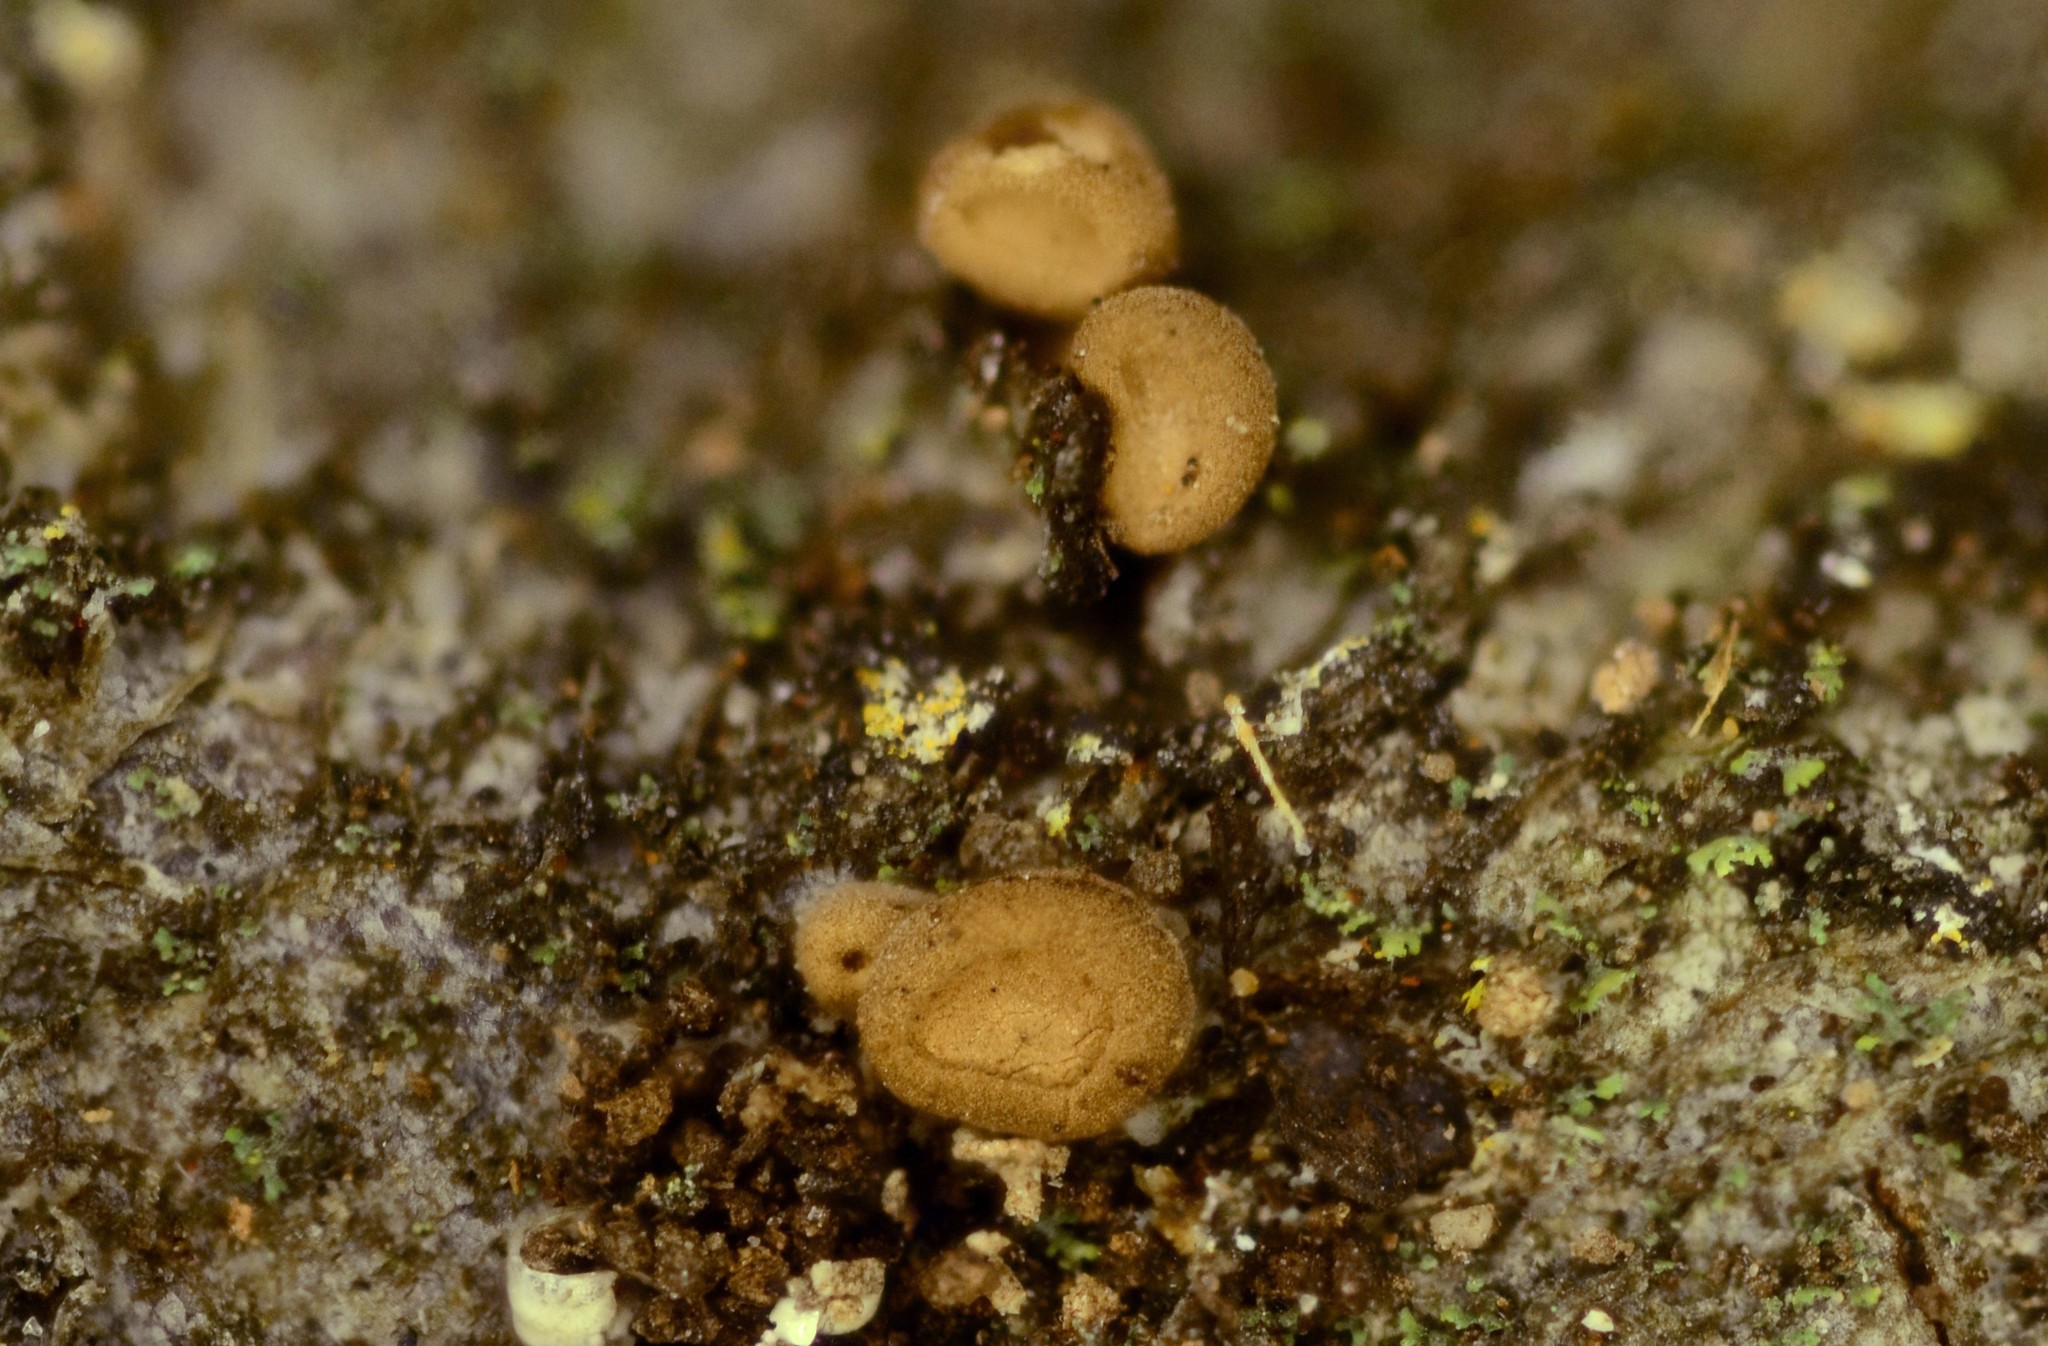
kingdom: Fungi
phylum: Basidiomycota
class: Agaricomycetes
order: Agaricales
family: Schizophyllaceae
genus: Porodisculus
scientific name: Porodisculus pendulus
